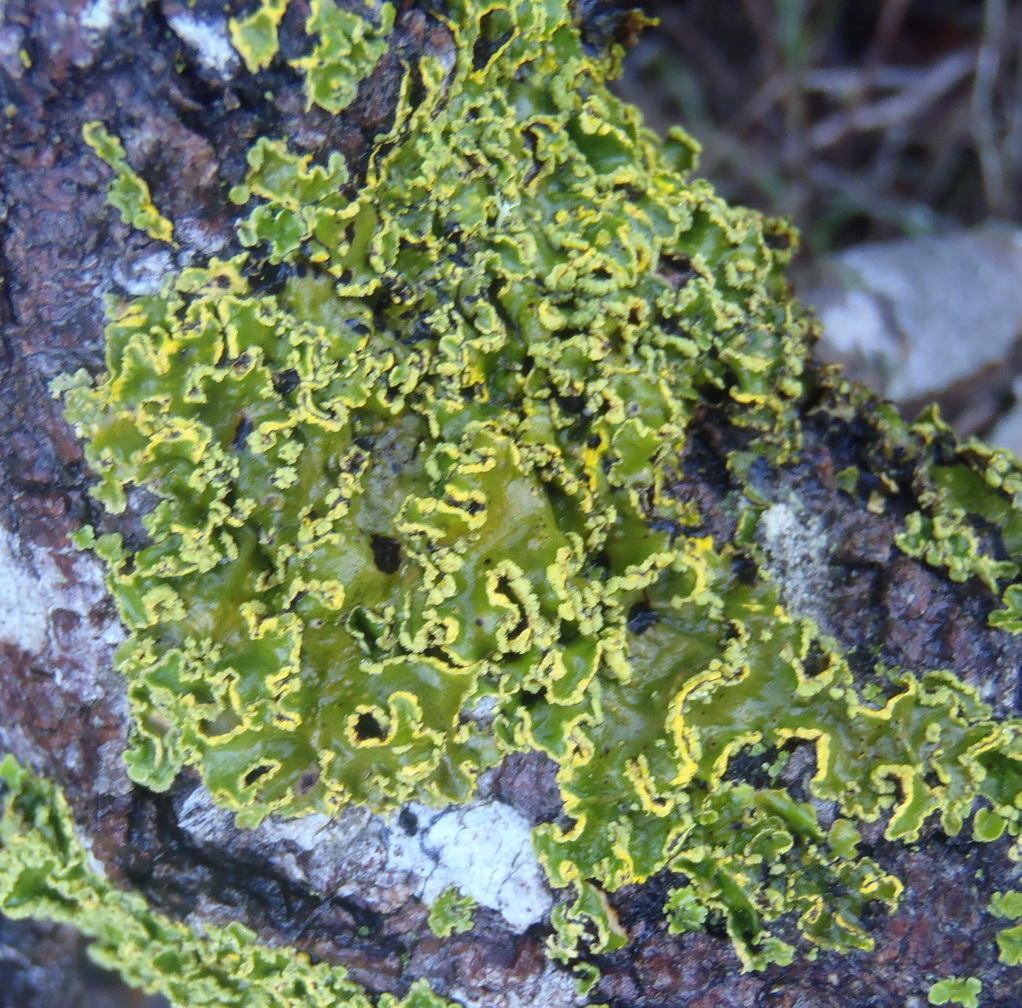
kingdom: Fungi
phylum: Ascomycota
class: Lecanoromycetes
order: Peltigerales
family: Lobariaceae
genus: Pseudocyphellaria
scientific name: Pseudocyphellaria aurata
